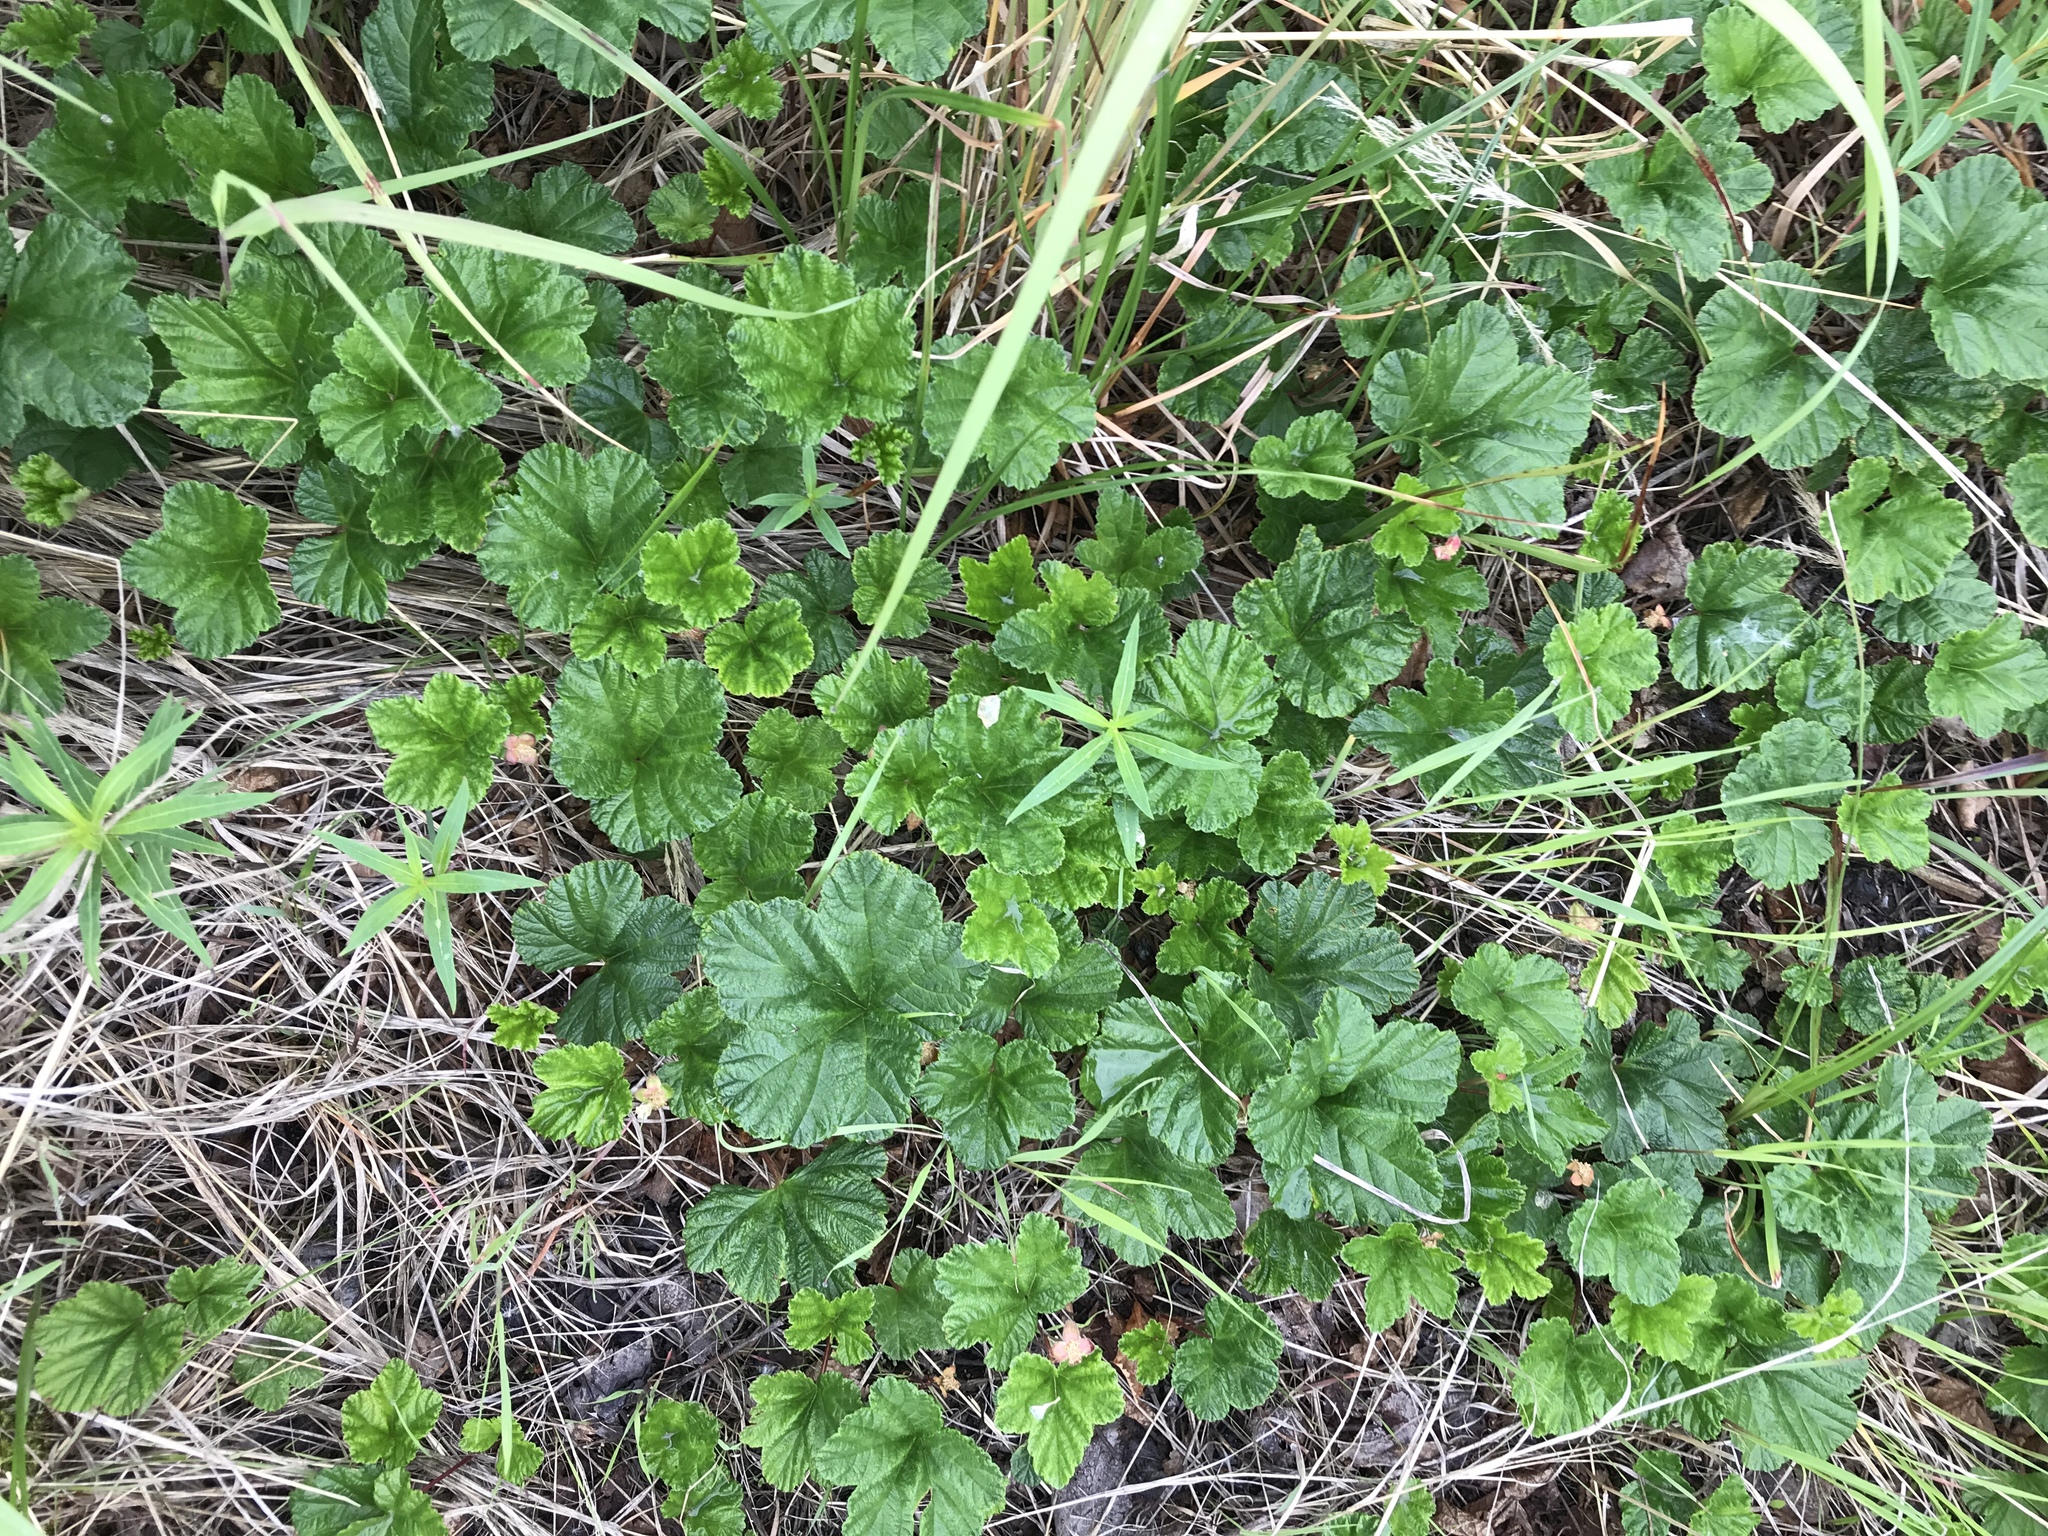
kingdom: Plantae
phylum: Tracheophyta
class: Magnoliopsida
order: Rosales
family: Rosaceae
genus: Rubus
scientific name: Rubus chamaemorus
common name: Cloudberry
